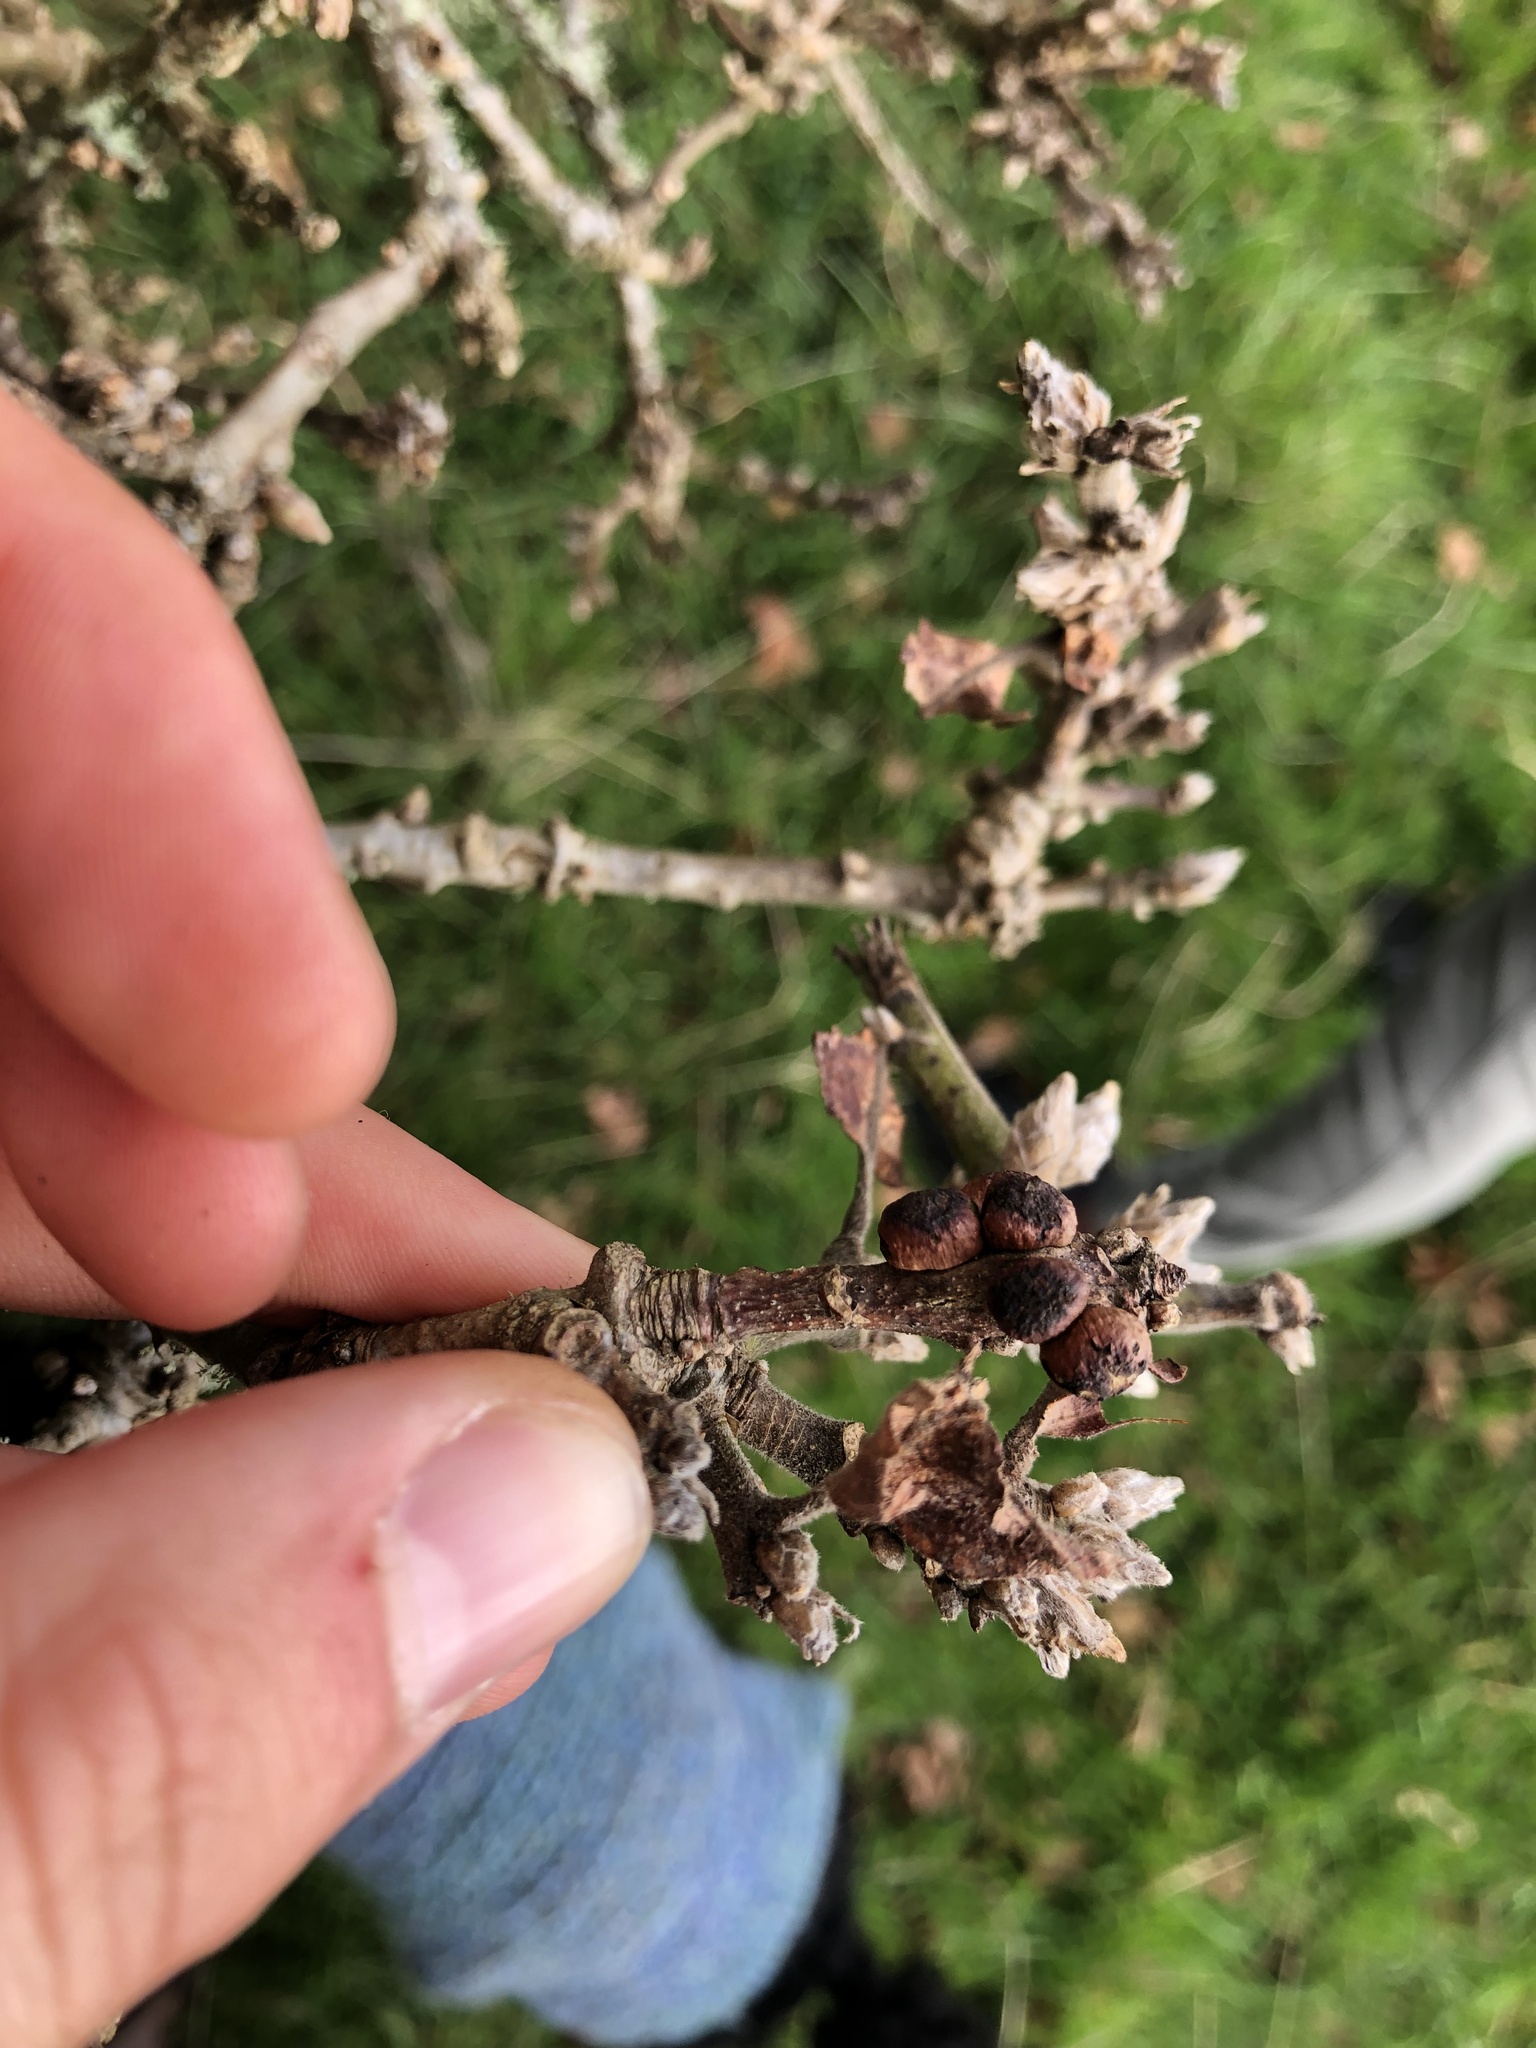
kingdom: Animalia
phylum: Arthropoda
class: Insecta
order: Hymenoptera
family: Cynipidae
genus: Disholcaspis
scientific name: Disholcaspis
